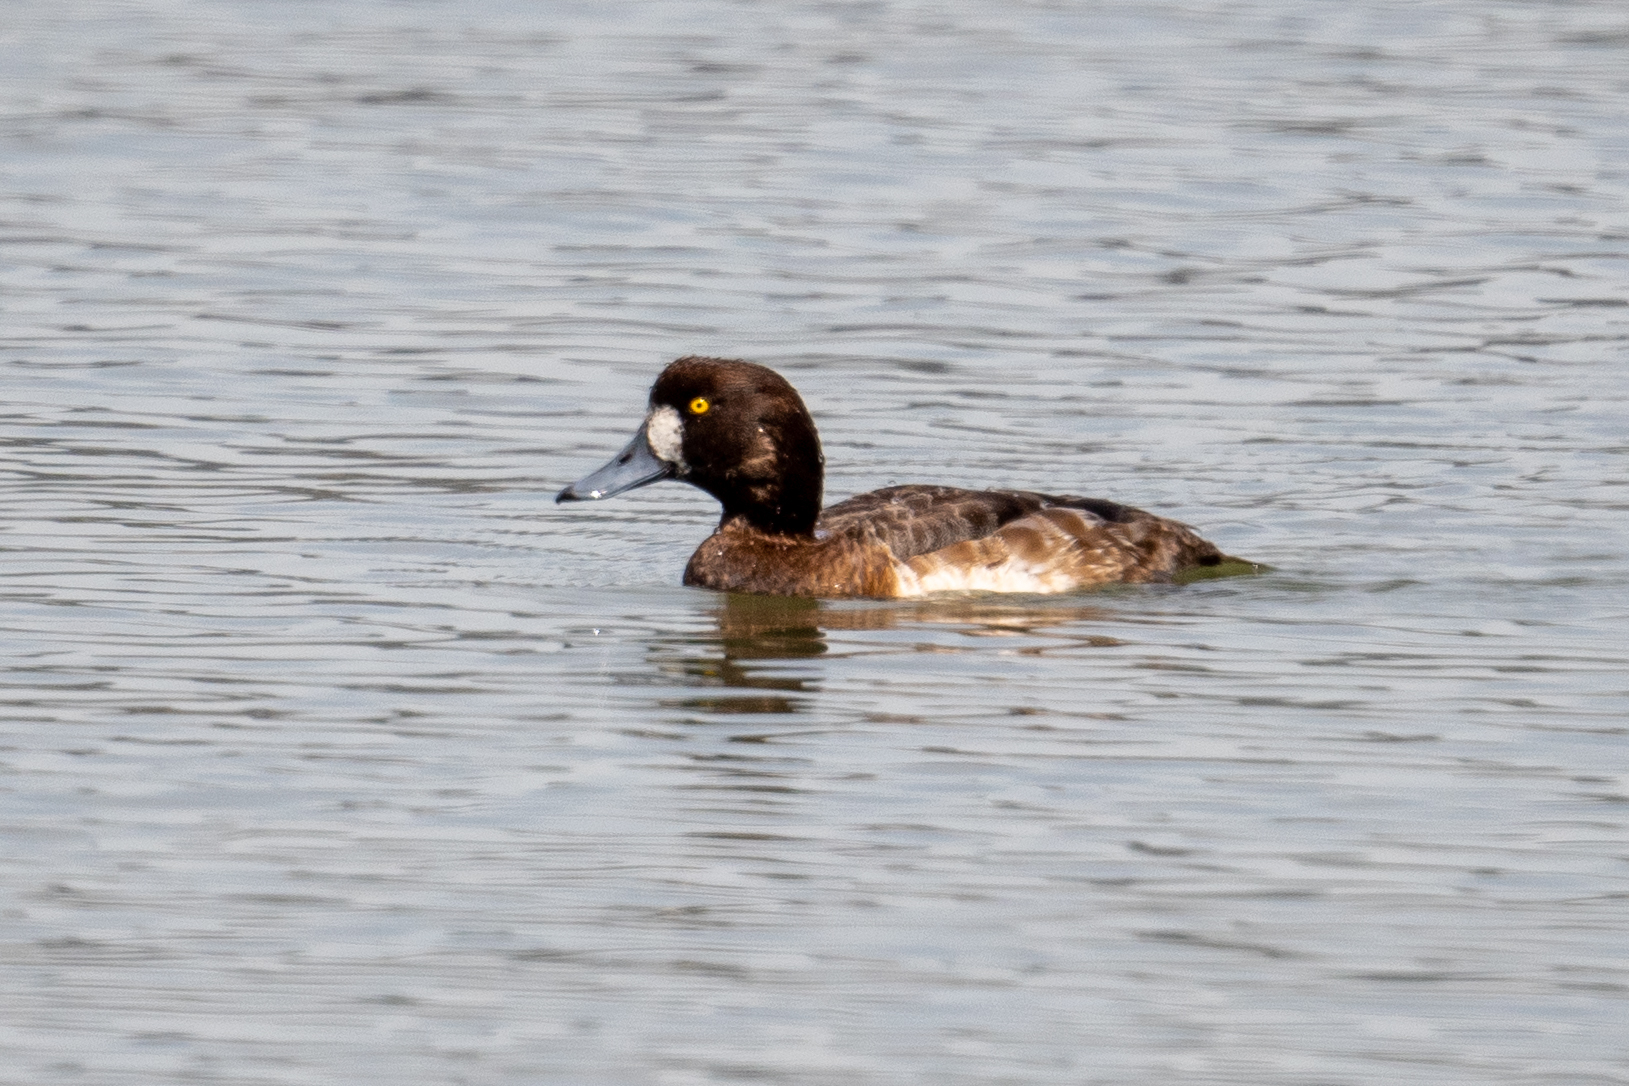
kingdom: Animalia
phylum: Chordata
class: Aves
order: Anseriformes
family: Anatidae
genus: Aythya
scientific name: Aythya marila
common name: Greater scaup
